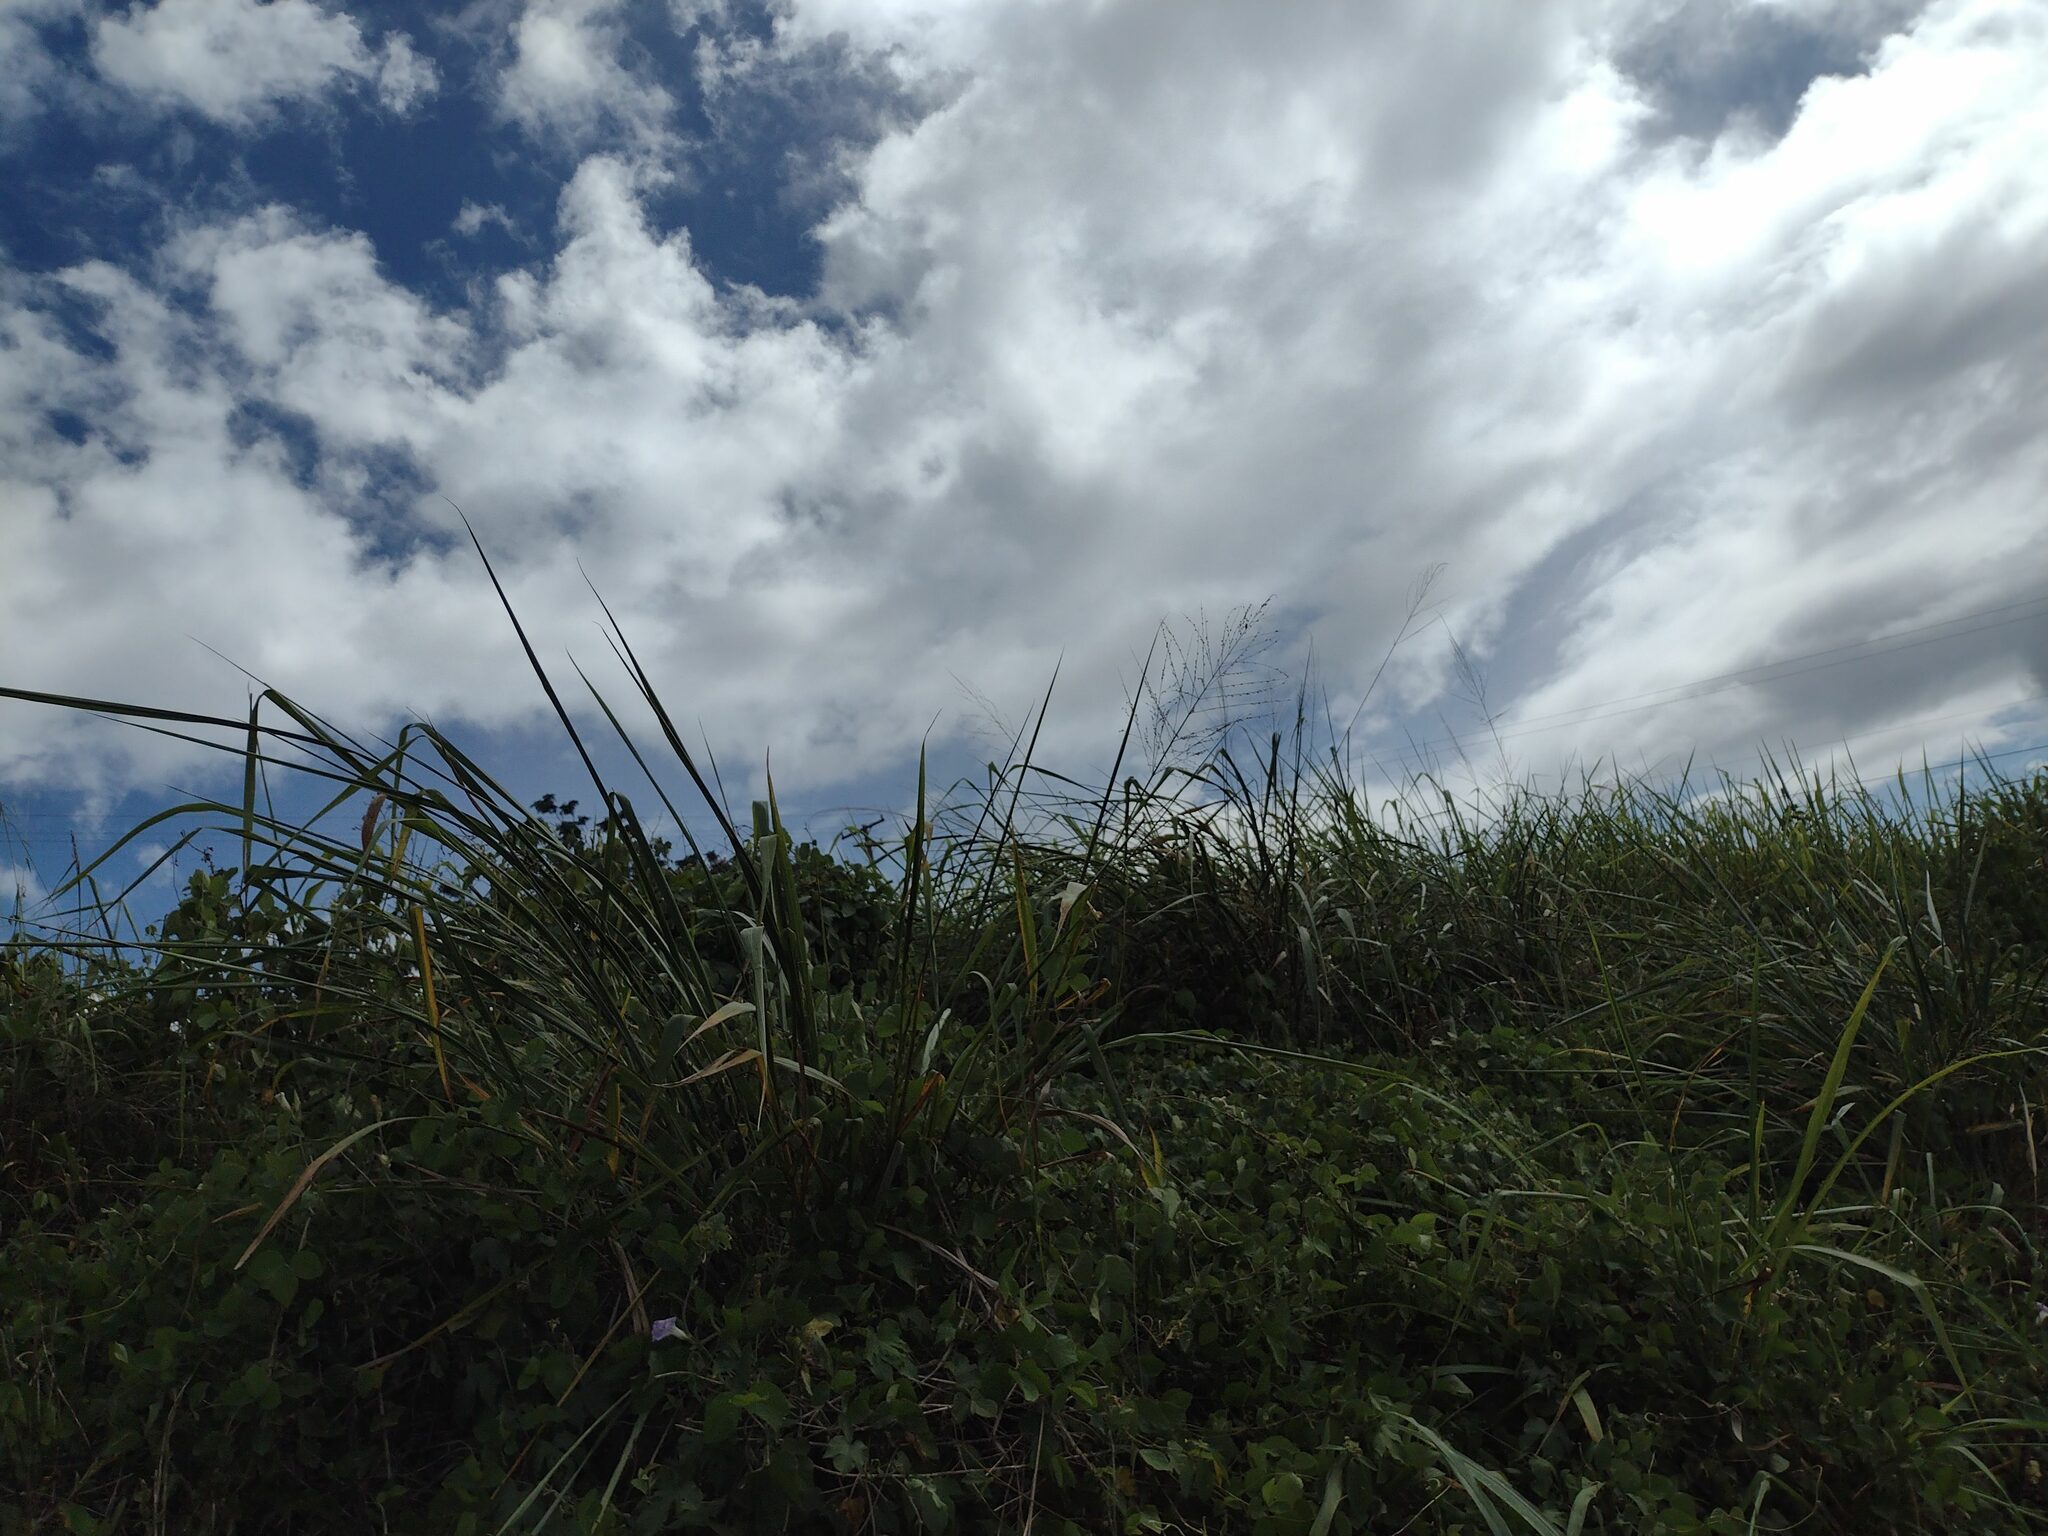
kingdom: Plantae
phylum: Tracheophyta
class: Liliopsida
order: Poales
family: Poaceae
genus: Megathyrsus
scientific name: Megathyrsus maximus
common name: Guineagrass
